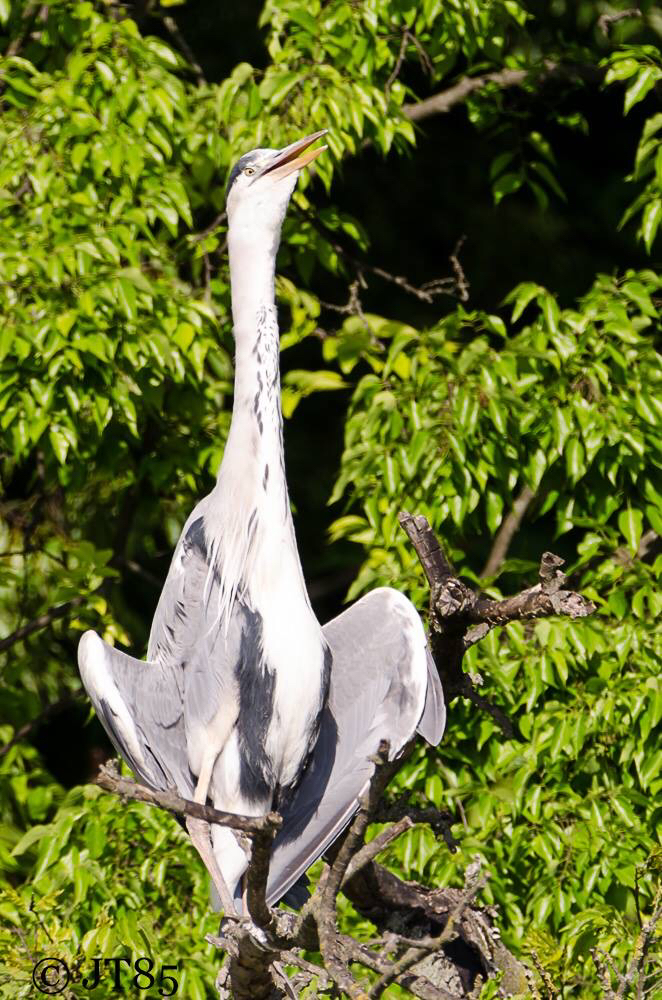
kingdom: Animalia
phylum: Chordata
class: Aves
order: Pelecaniformes
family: Ardeidae
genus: Ardea
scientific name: Ardea cinerea
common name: Grey heron
